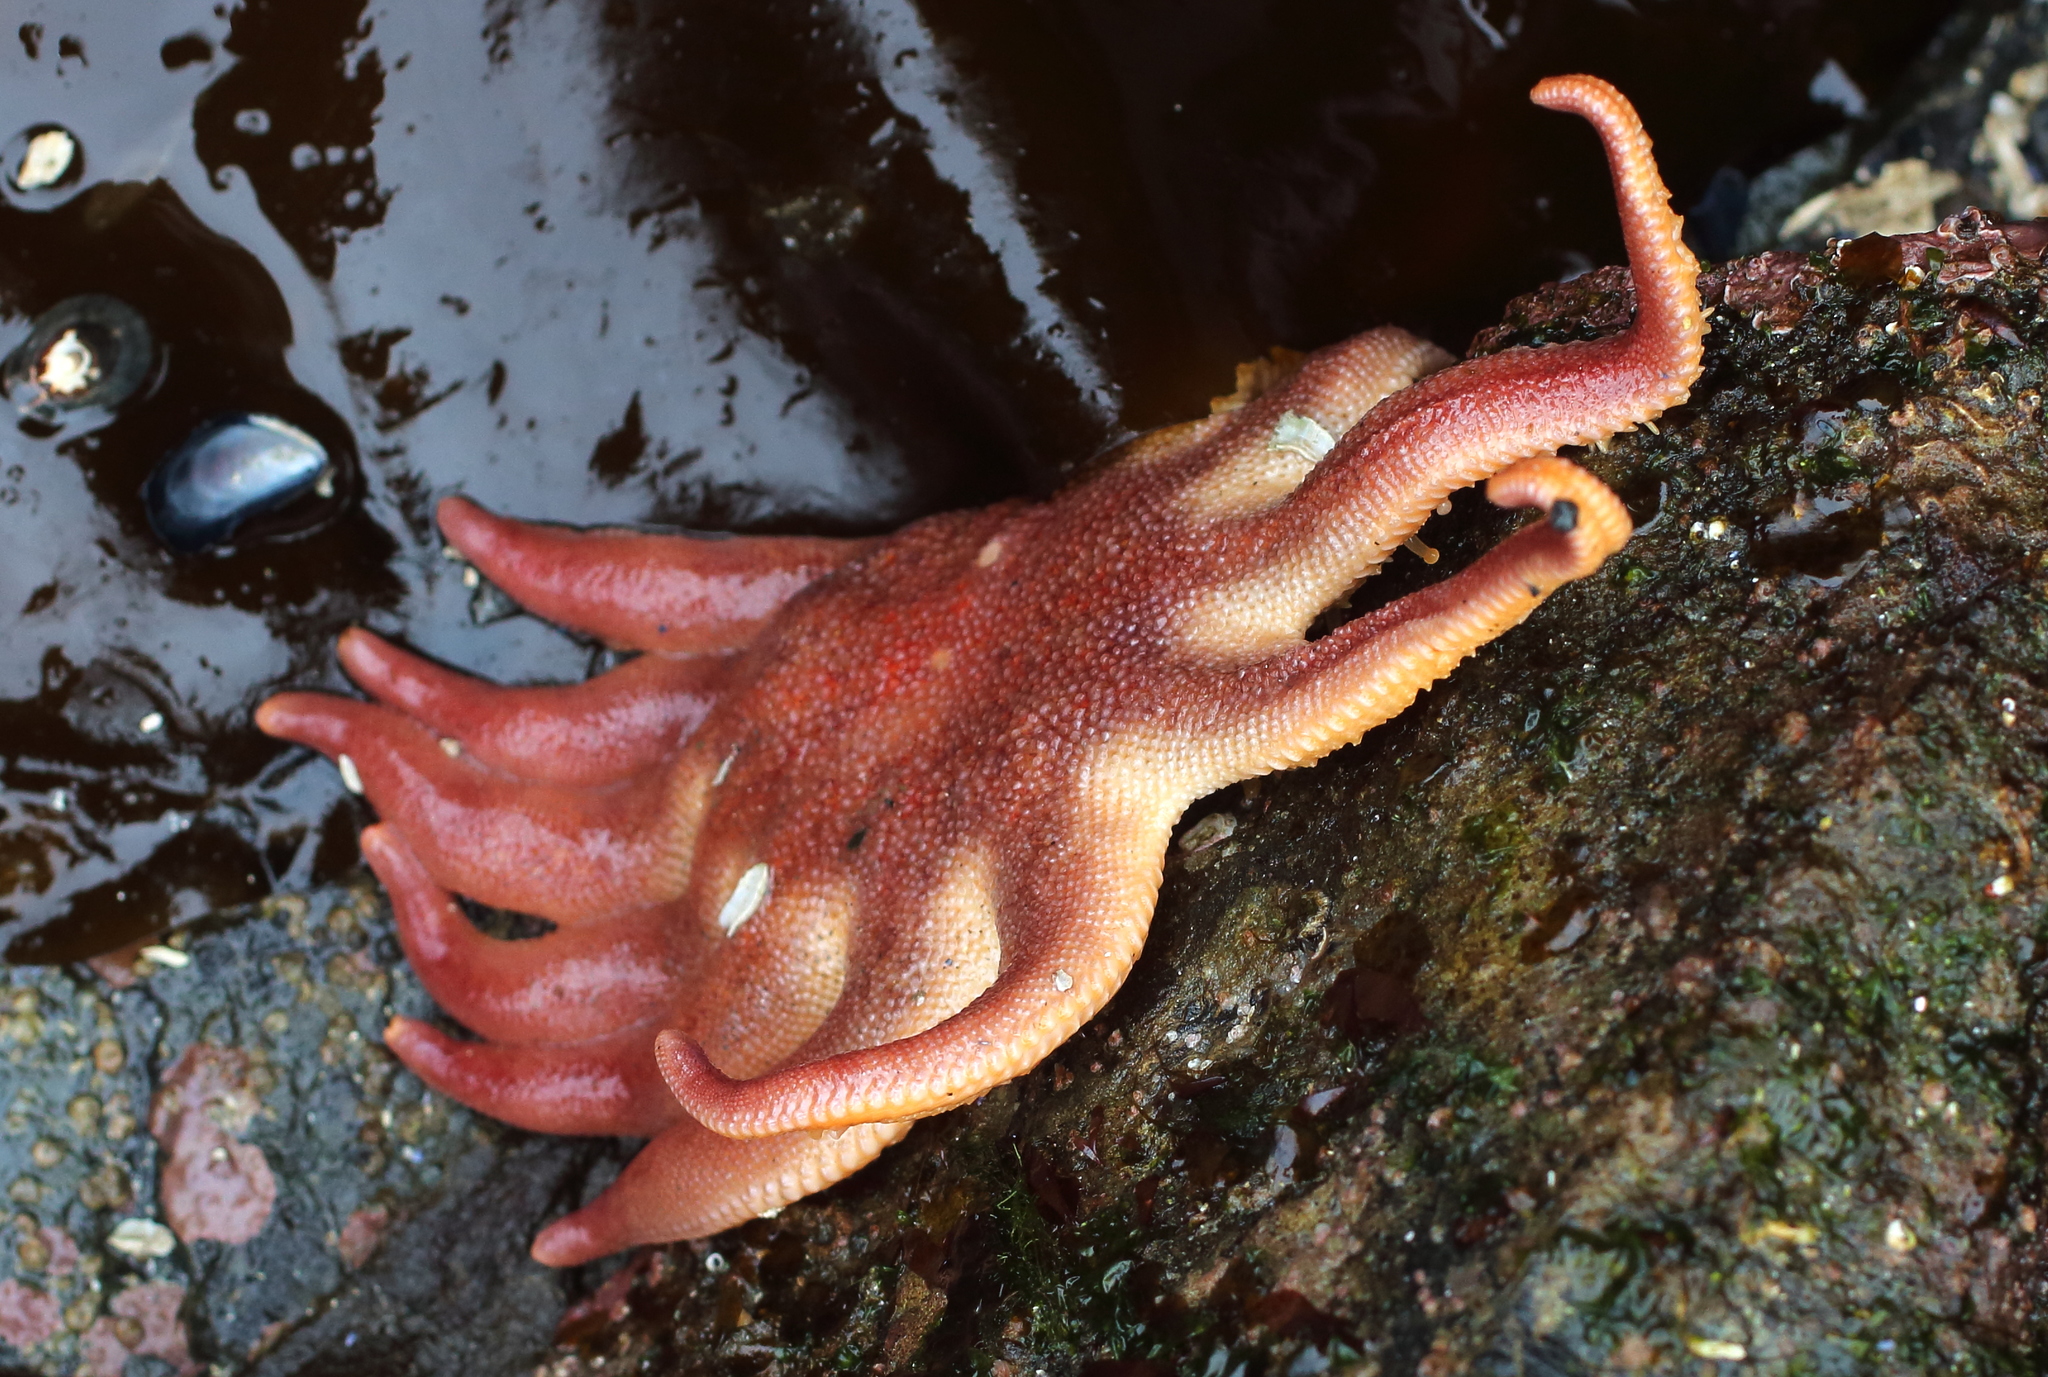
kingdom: Animalia
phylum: Echinodermata
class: Asteroidea
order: Valvatida
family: Solasteridae
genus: Solaster
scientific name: Solaster dawsoni
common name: Morning sun star
